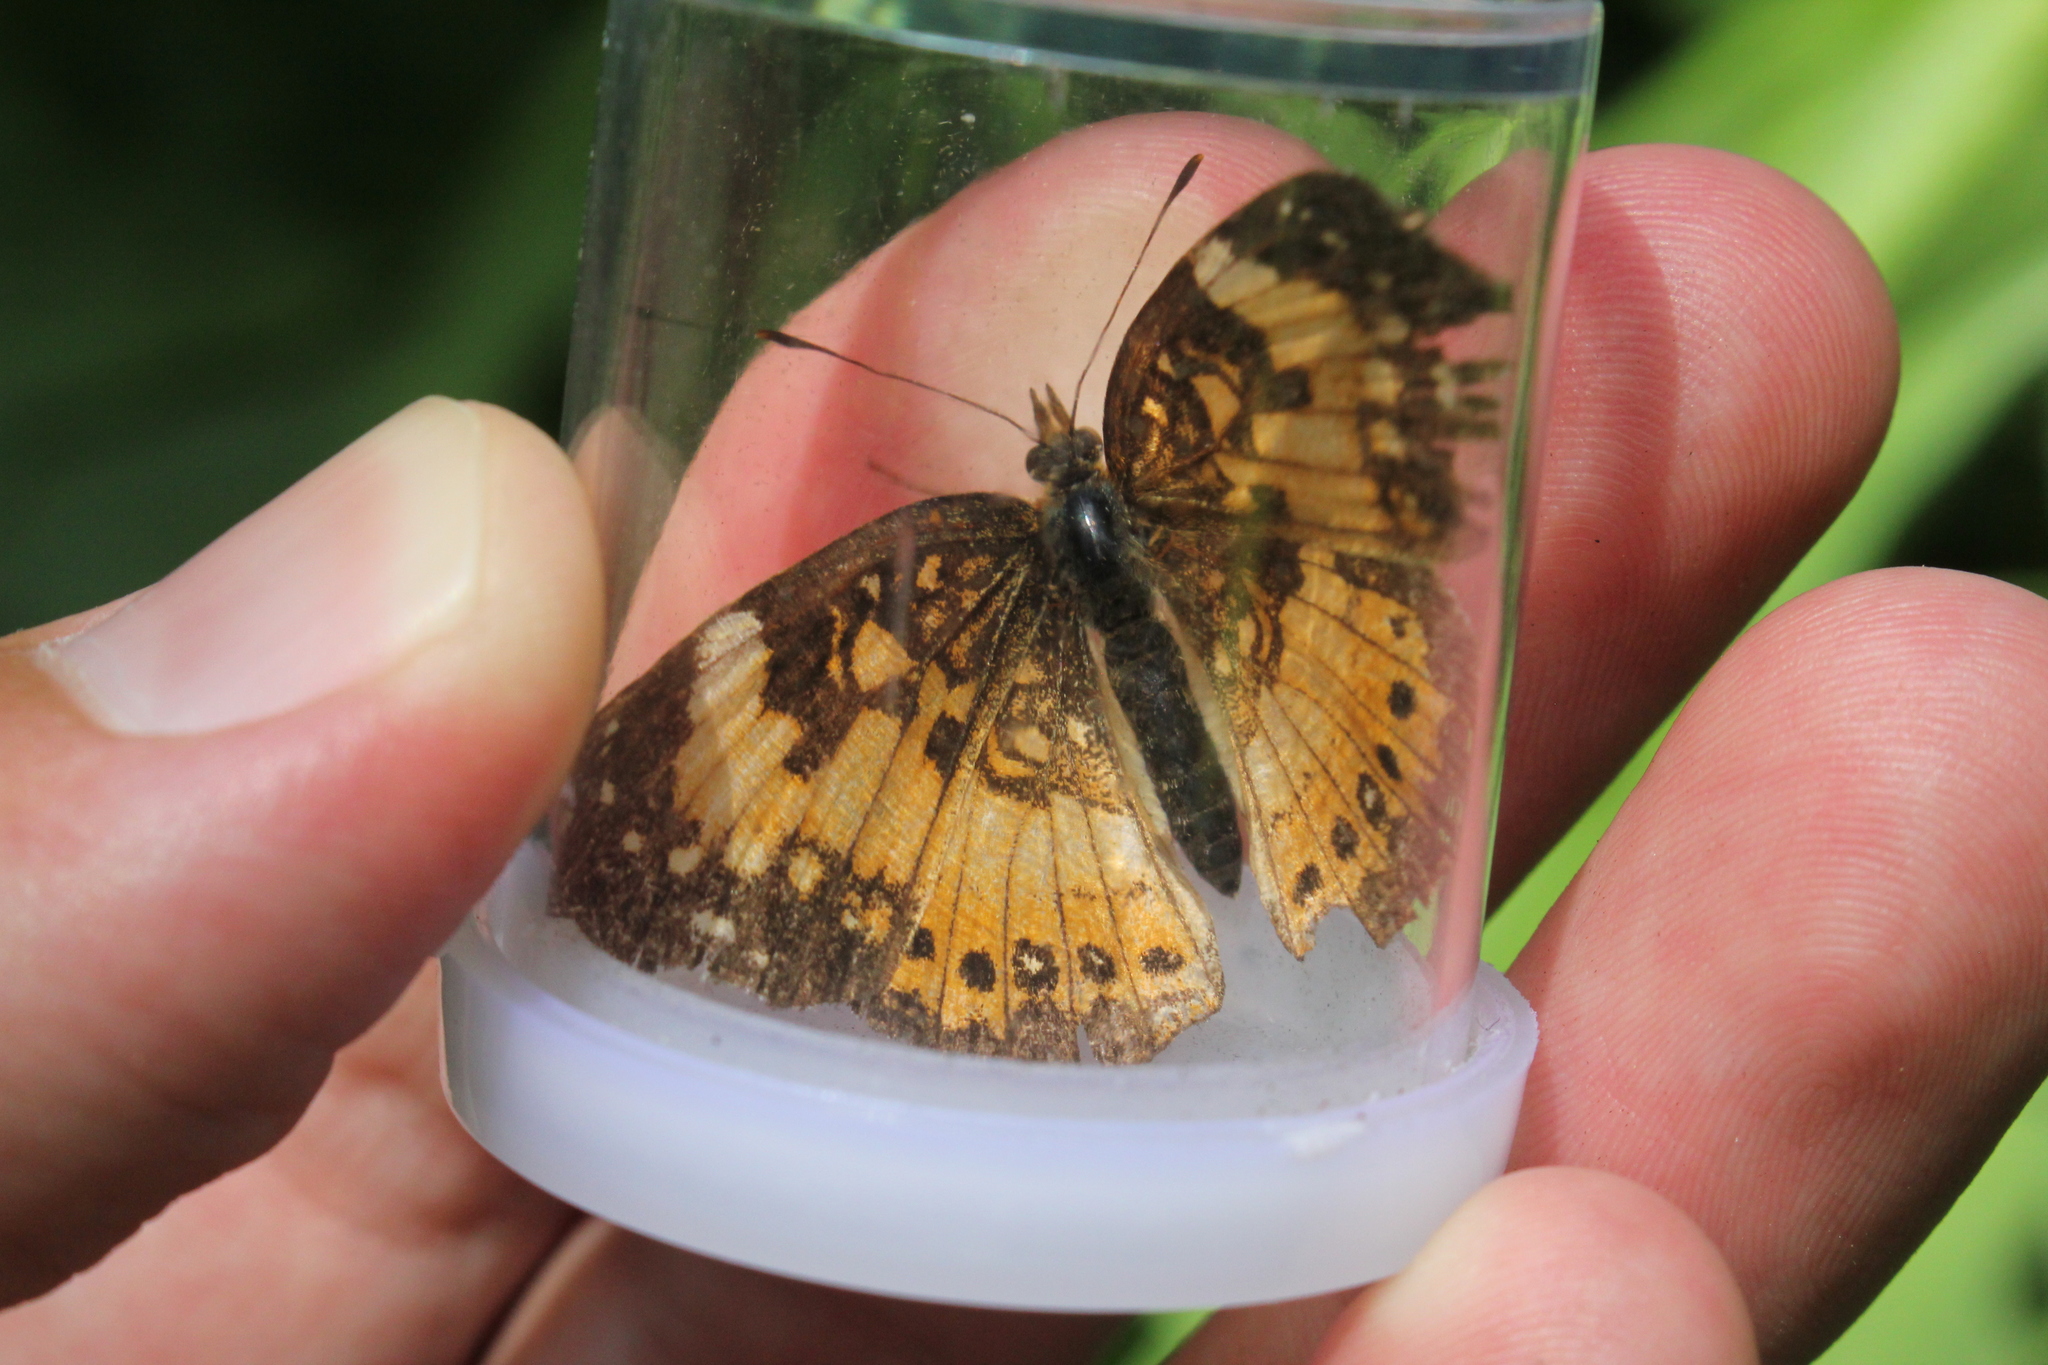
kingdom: Animalia
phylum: Arthropoda
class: Insecta
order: Lepidoptera
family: Nymphalidae
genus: Chlosyne
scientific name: Chlosyne nycteis
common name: Silvery checkerspot
